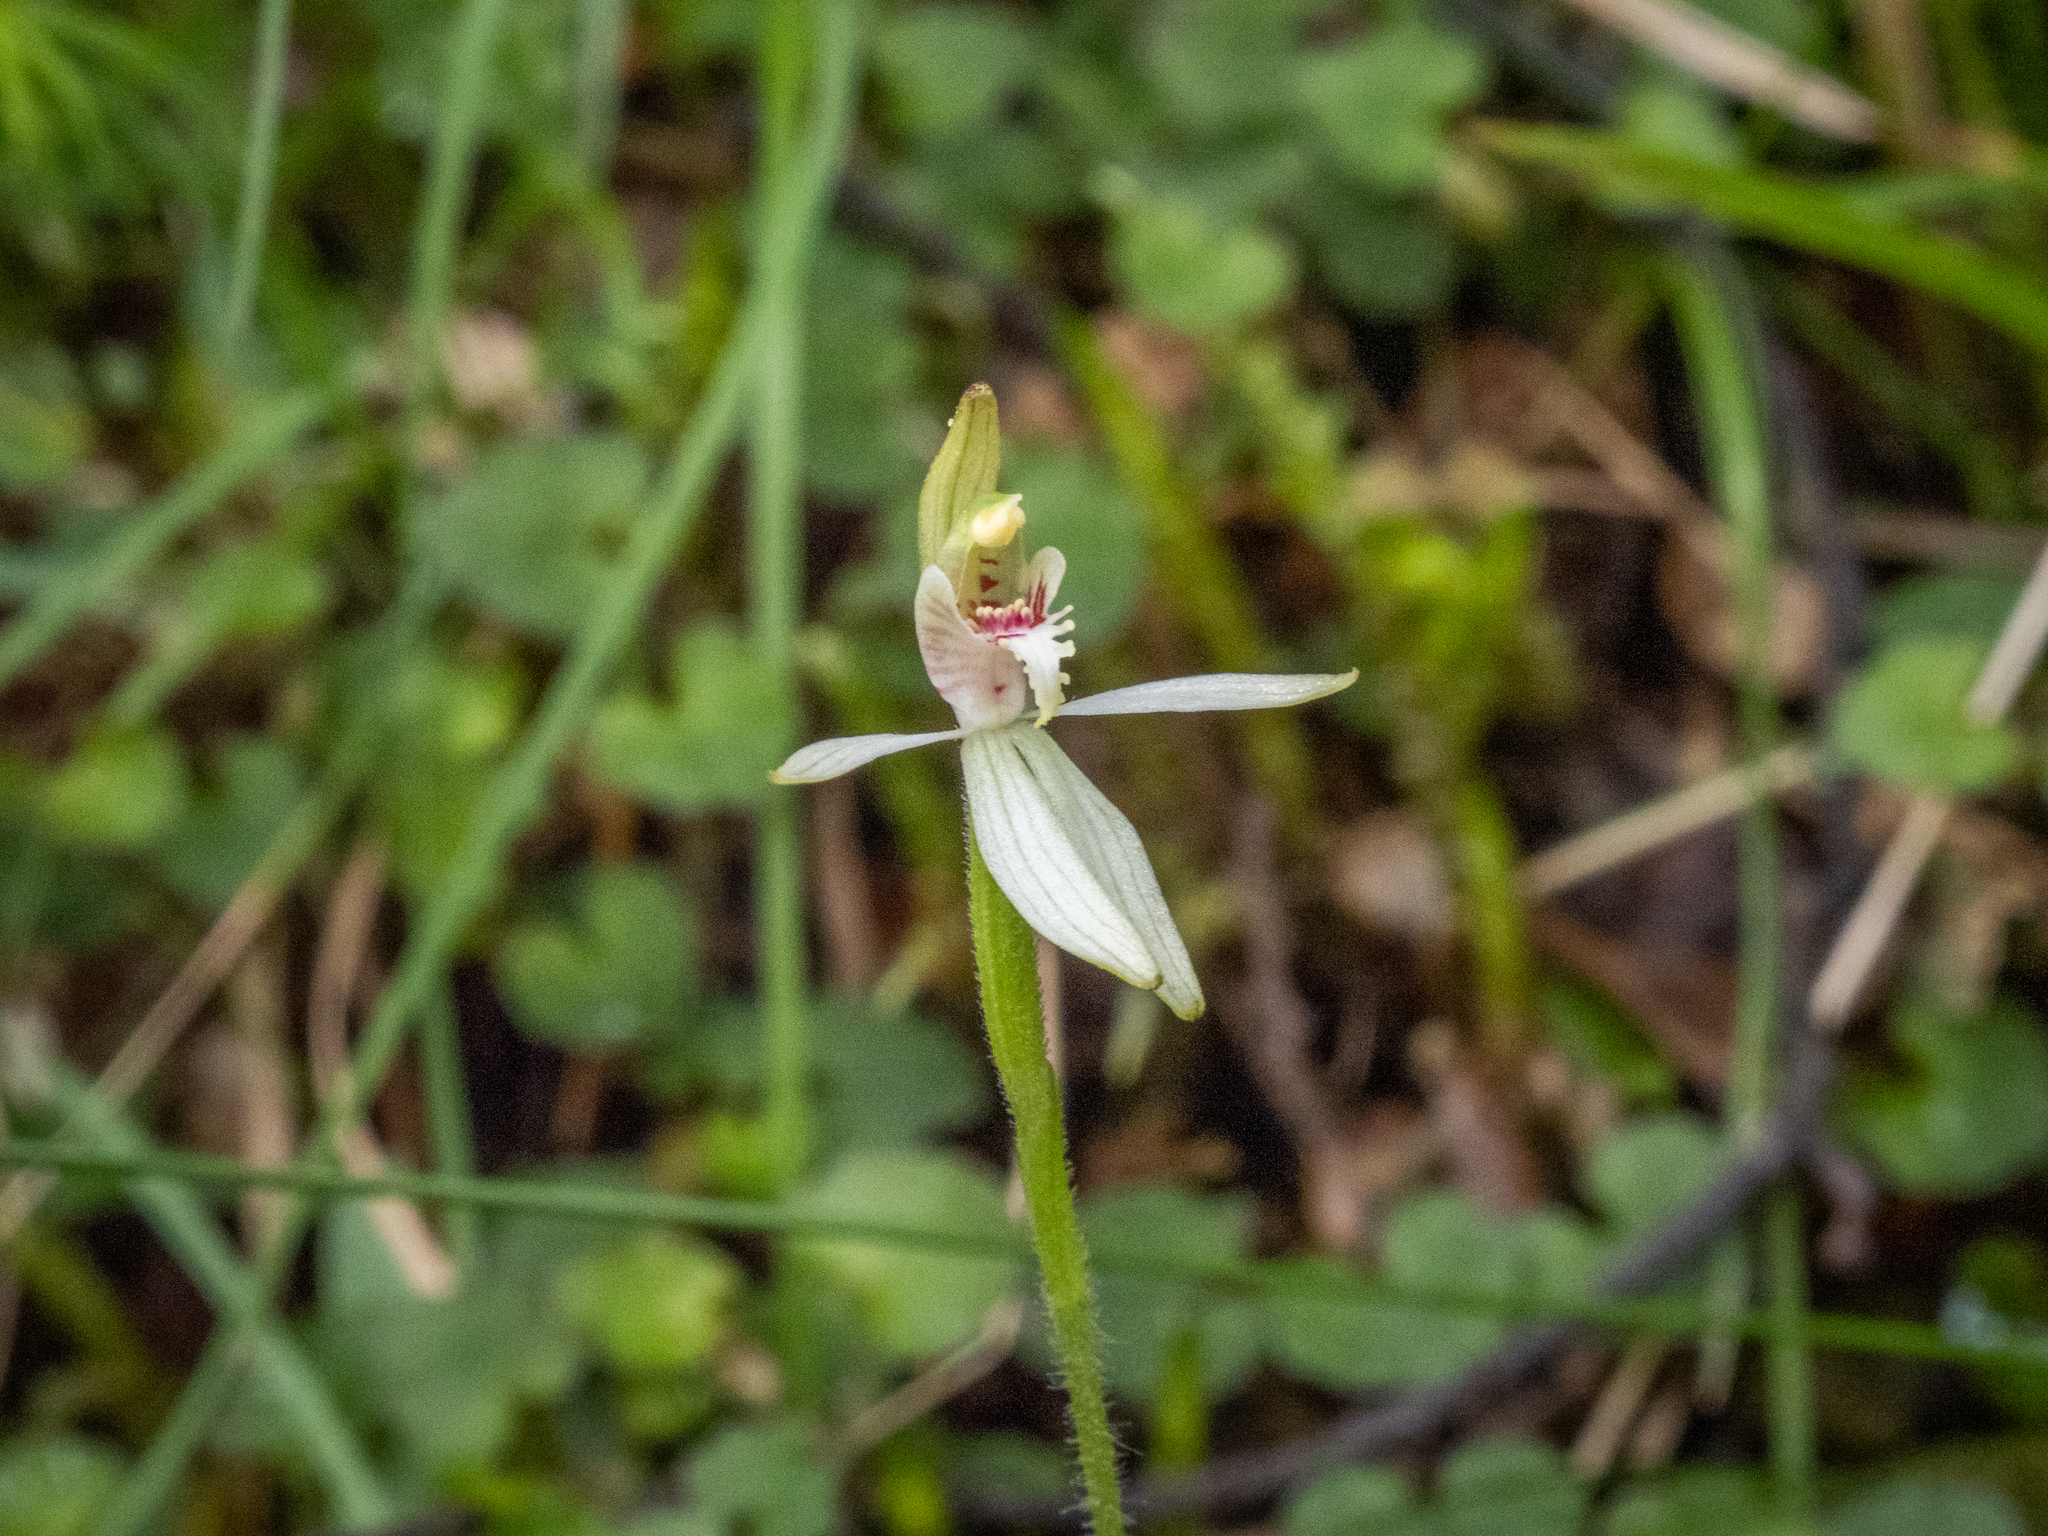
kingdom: Plantae
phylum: Tracheophyta
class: Liliopsida
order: Asparagales
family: Orchidaceae
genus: Caladenia
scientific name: Caladenia chlorostyla
